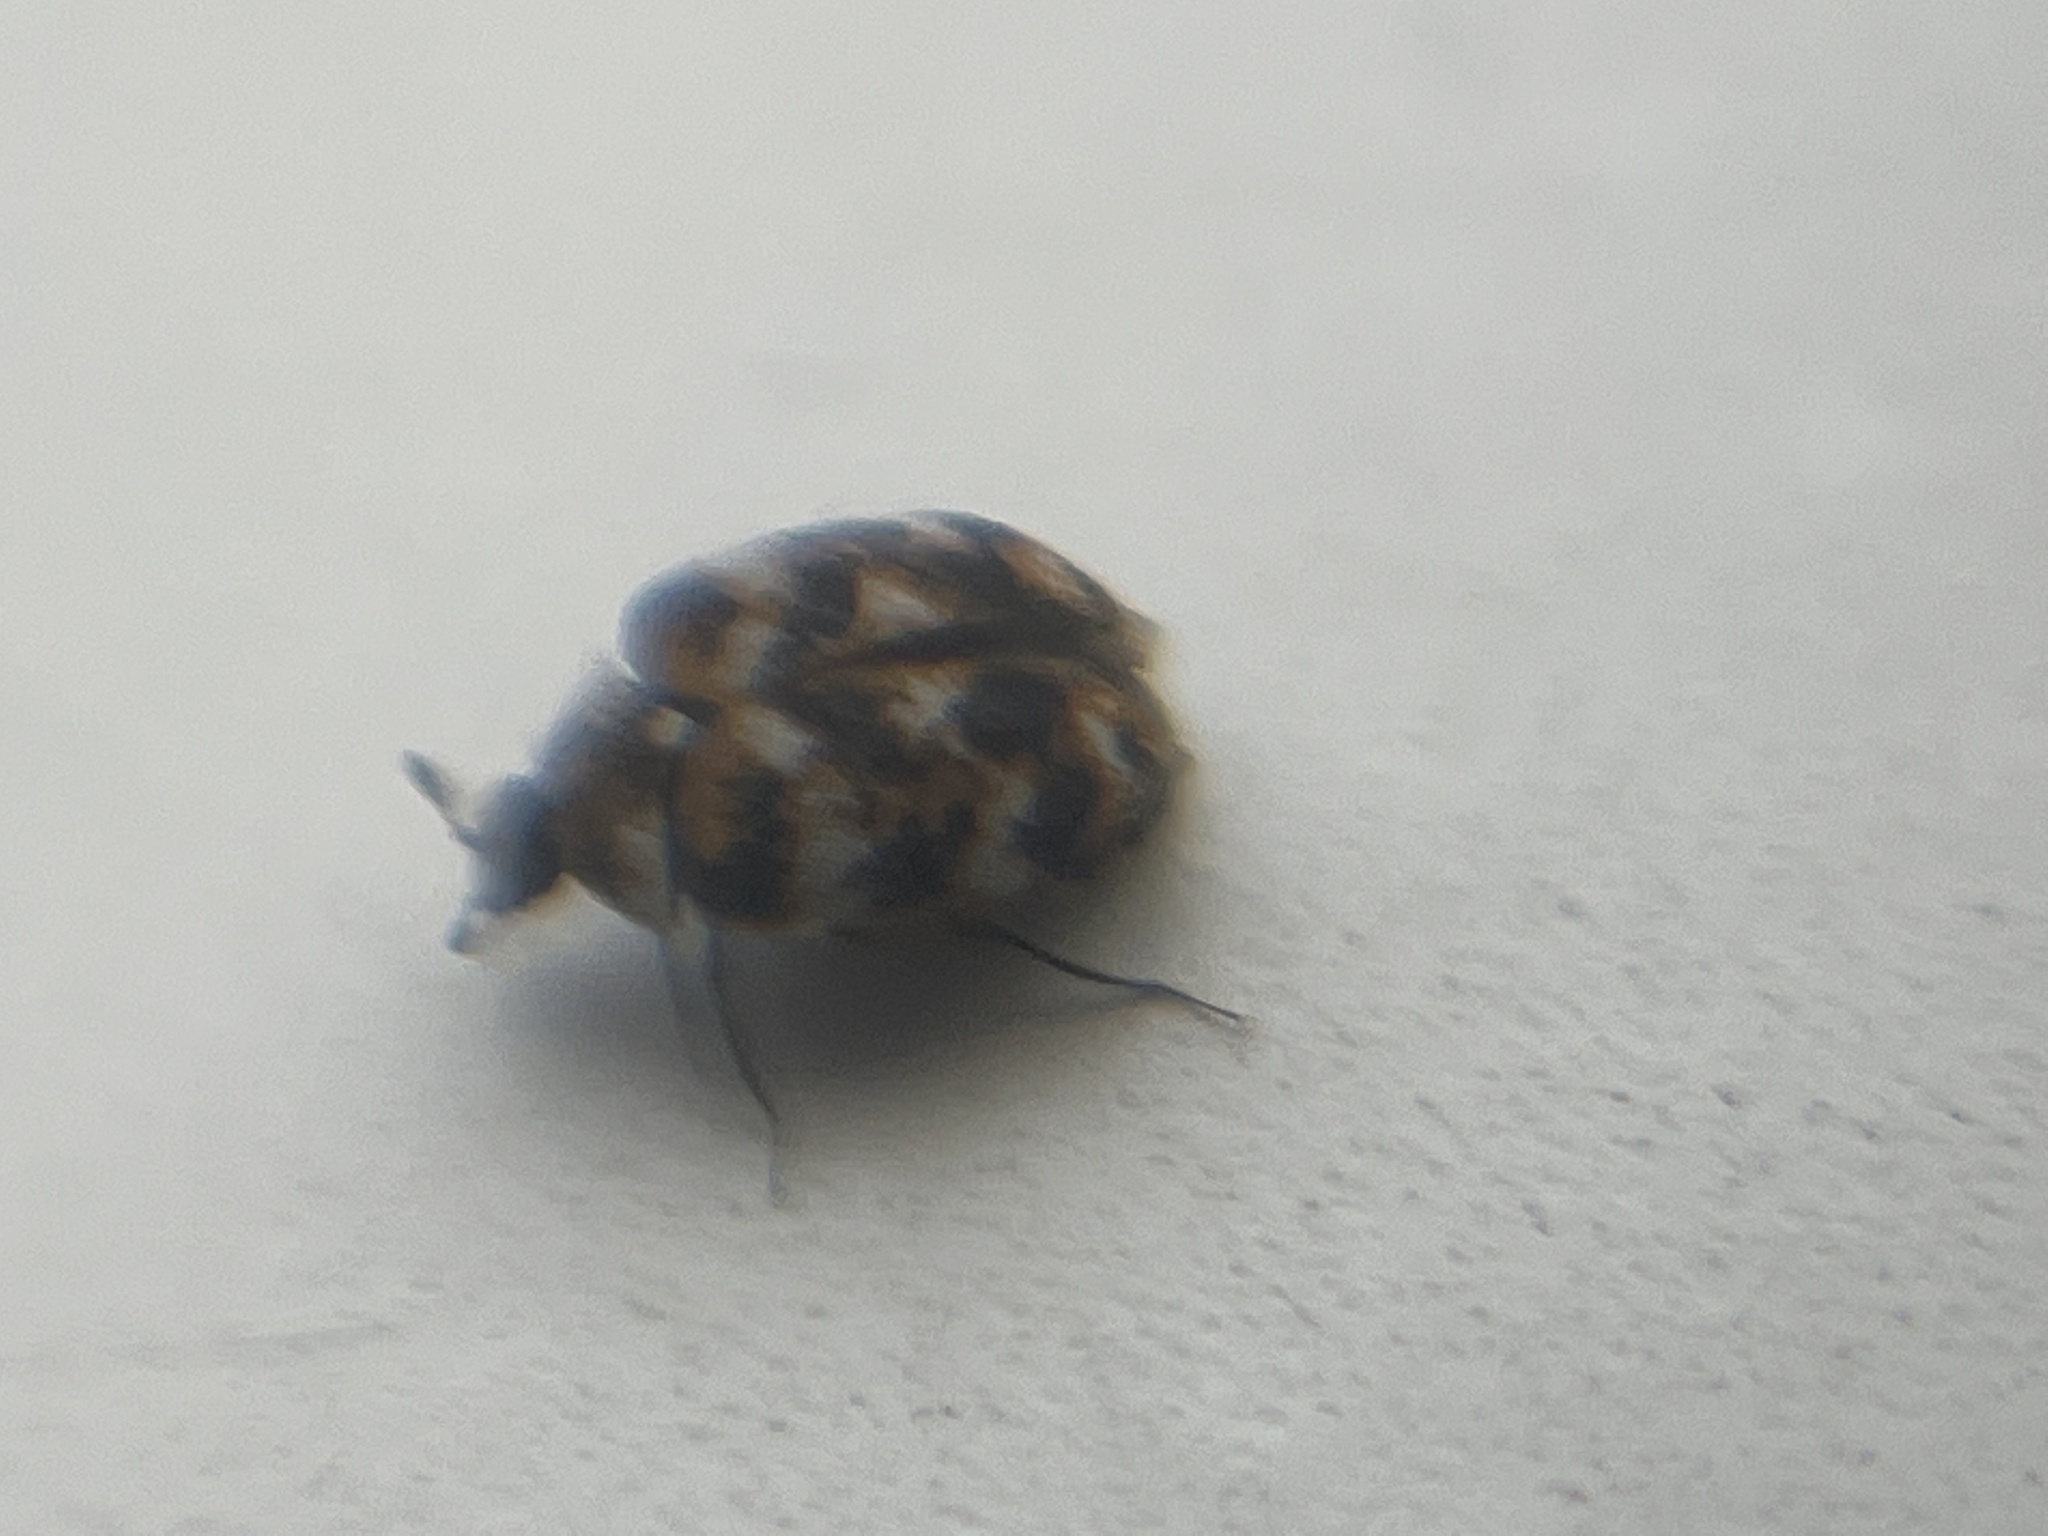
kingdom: Animalia
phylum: Arthropoda
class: Insecta
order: Coleoptera
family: Dermestidae
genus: Anthrenus
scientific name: Anthrenus verbasci
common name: Varied carpet beetle
